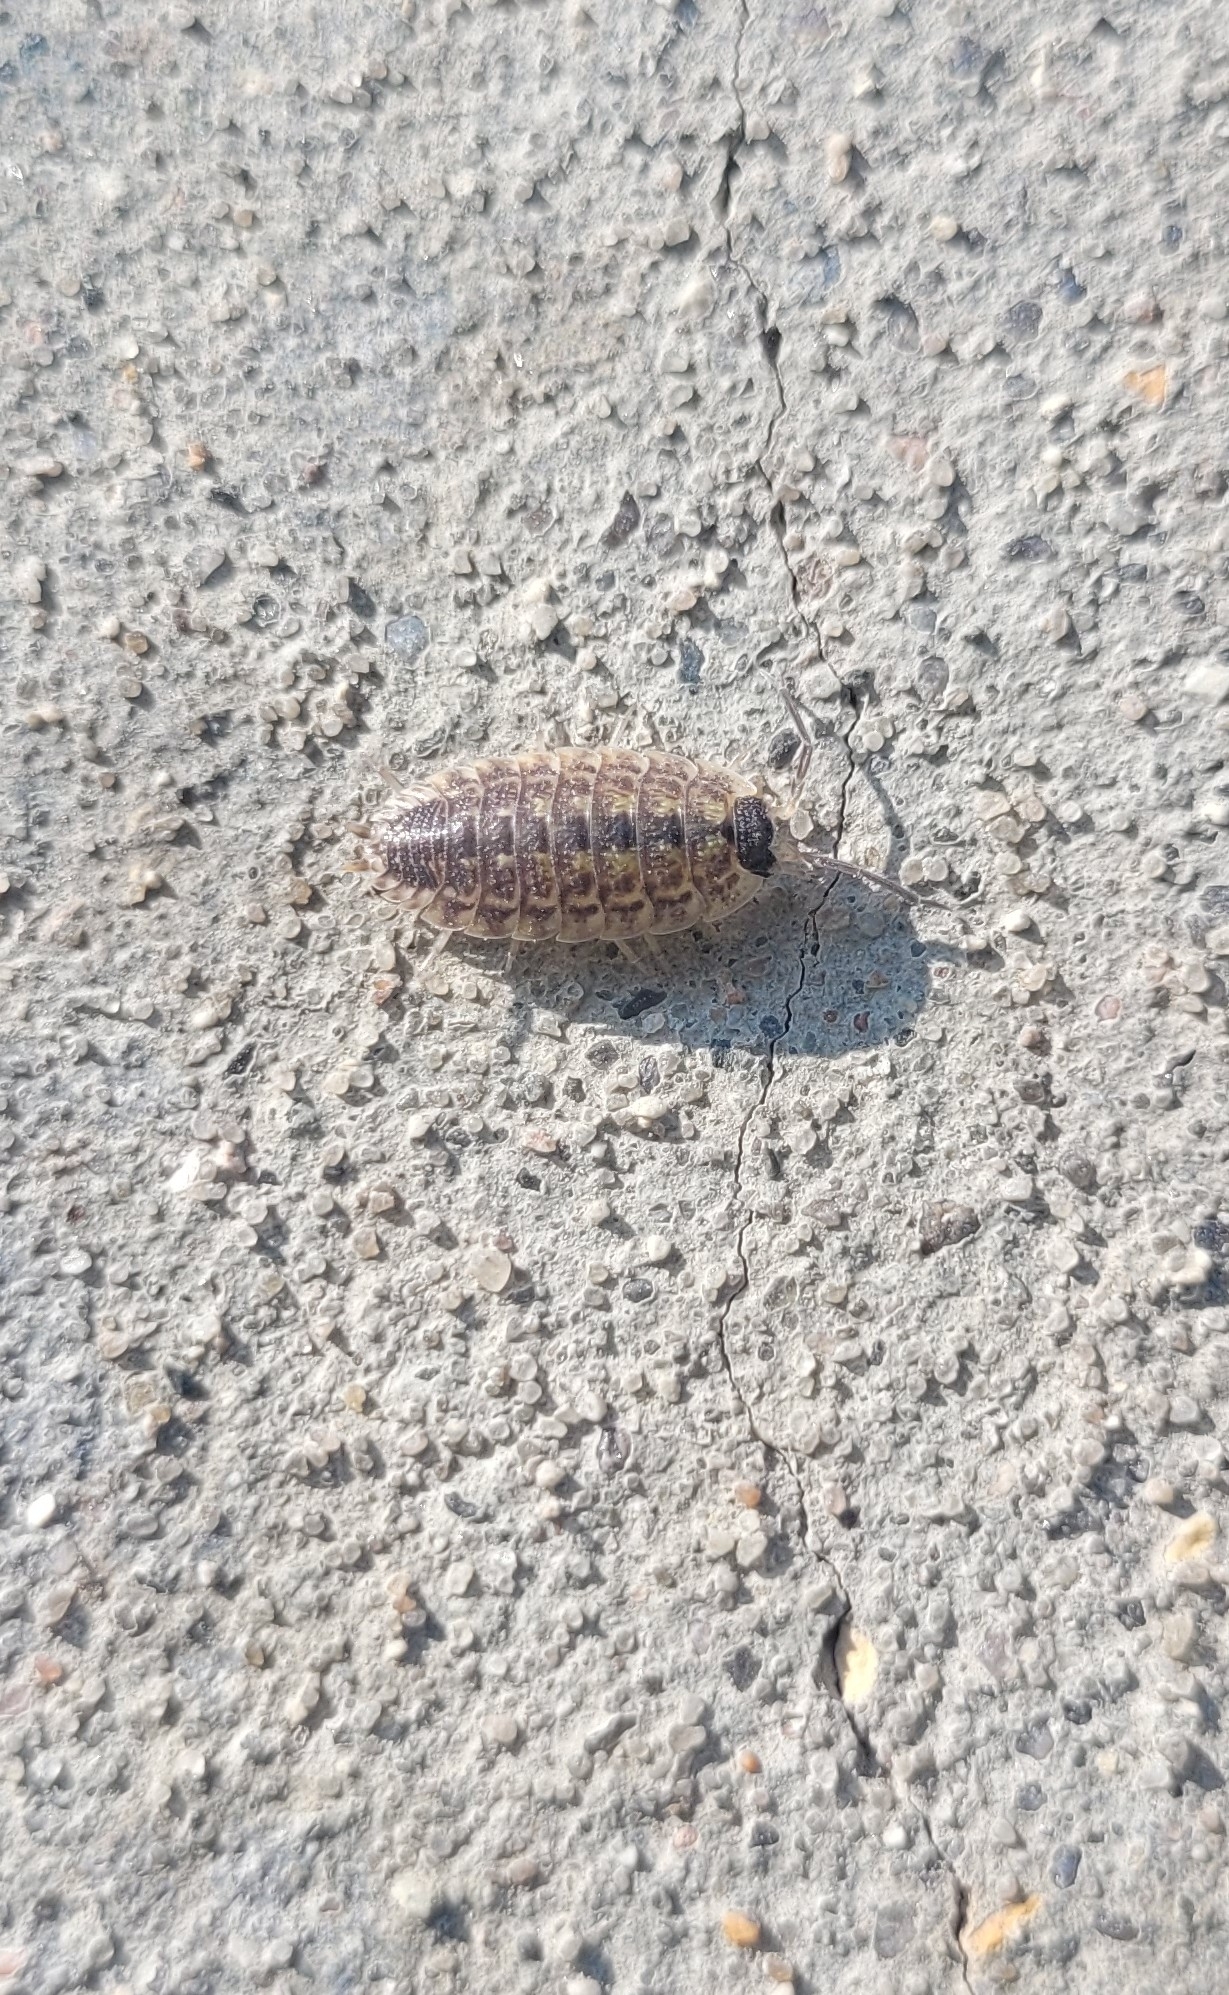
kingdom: Animalia
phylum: Arthropoda
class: Malacostraca
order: Isopoda
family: Porcellionidae
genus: Porcellio
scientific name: Porcellio spinicornis
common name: Painted woodlouse
